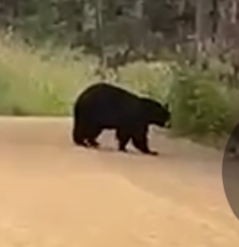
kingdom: Animalia
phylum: Chordata
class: Mammalia
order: Carnivora
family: Ursidae
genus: Ursus
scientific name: Ursus americanus
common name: American black bear
